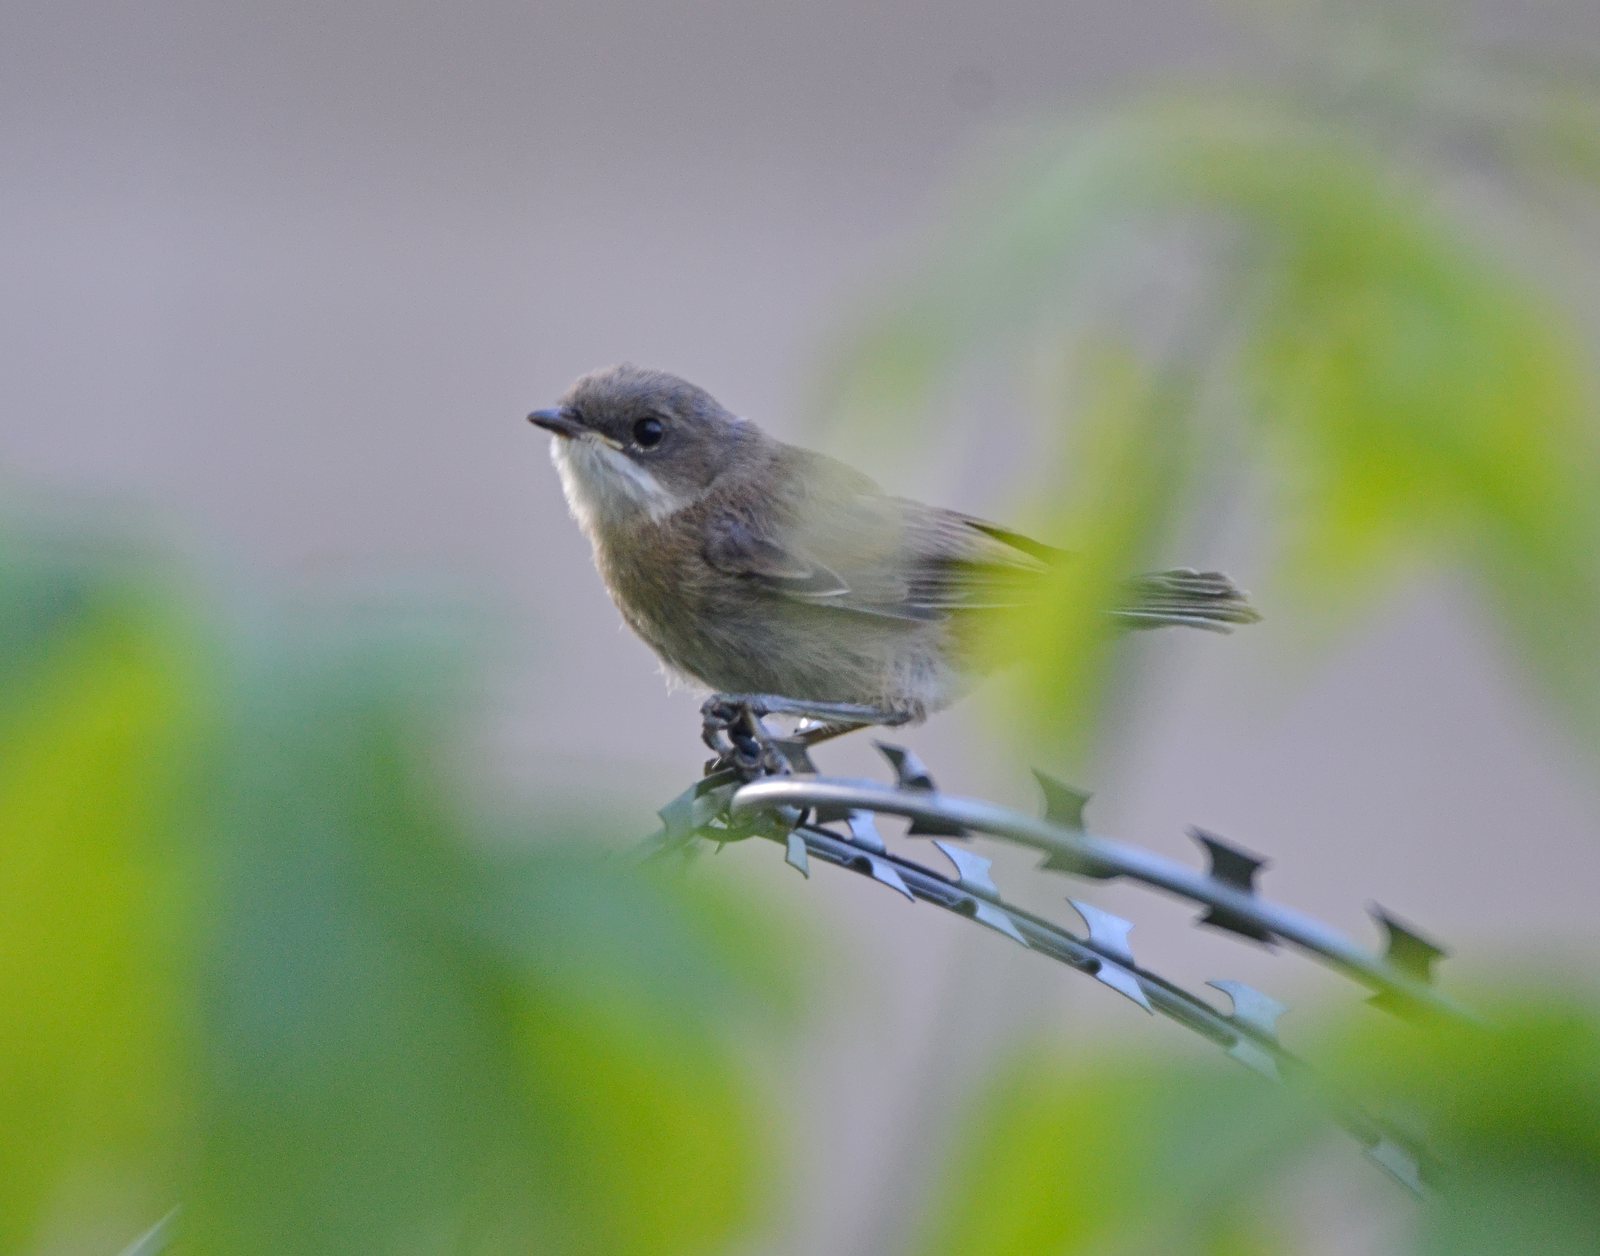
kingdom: Animalia
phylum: Chordata
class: Aves
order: Passeriformes
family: Sylviidae
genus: Sylvia
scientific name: Sylvia curruca
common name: Lesser whitethroat
